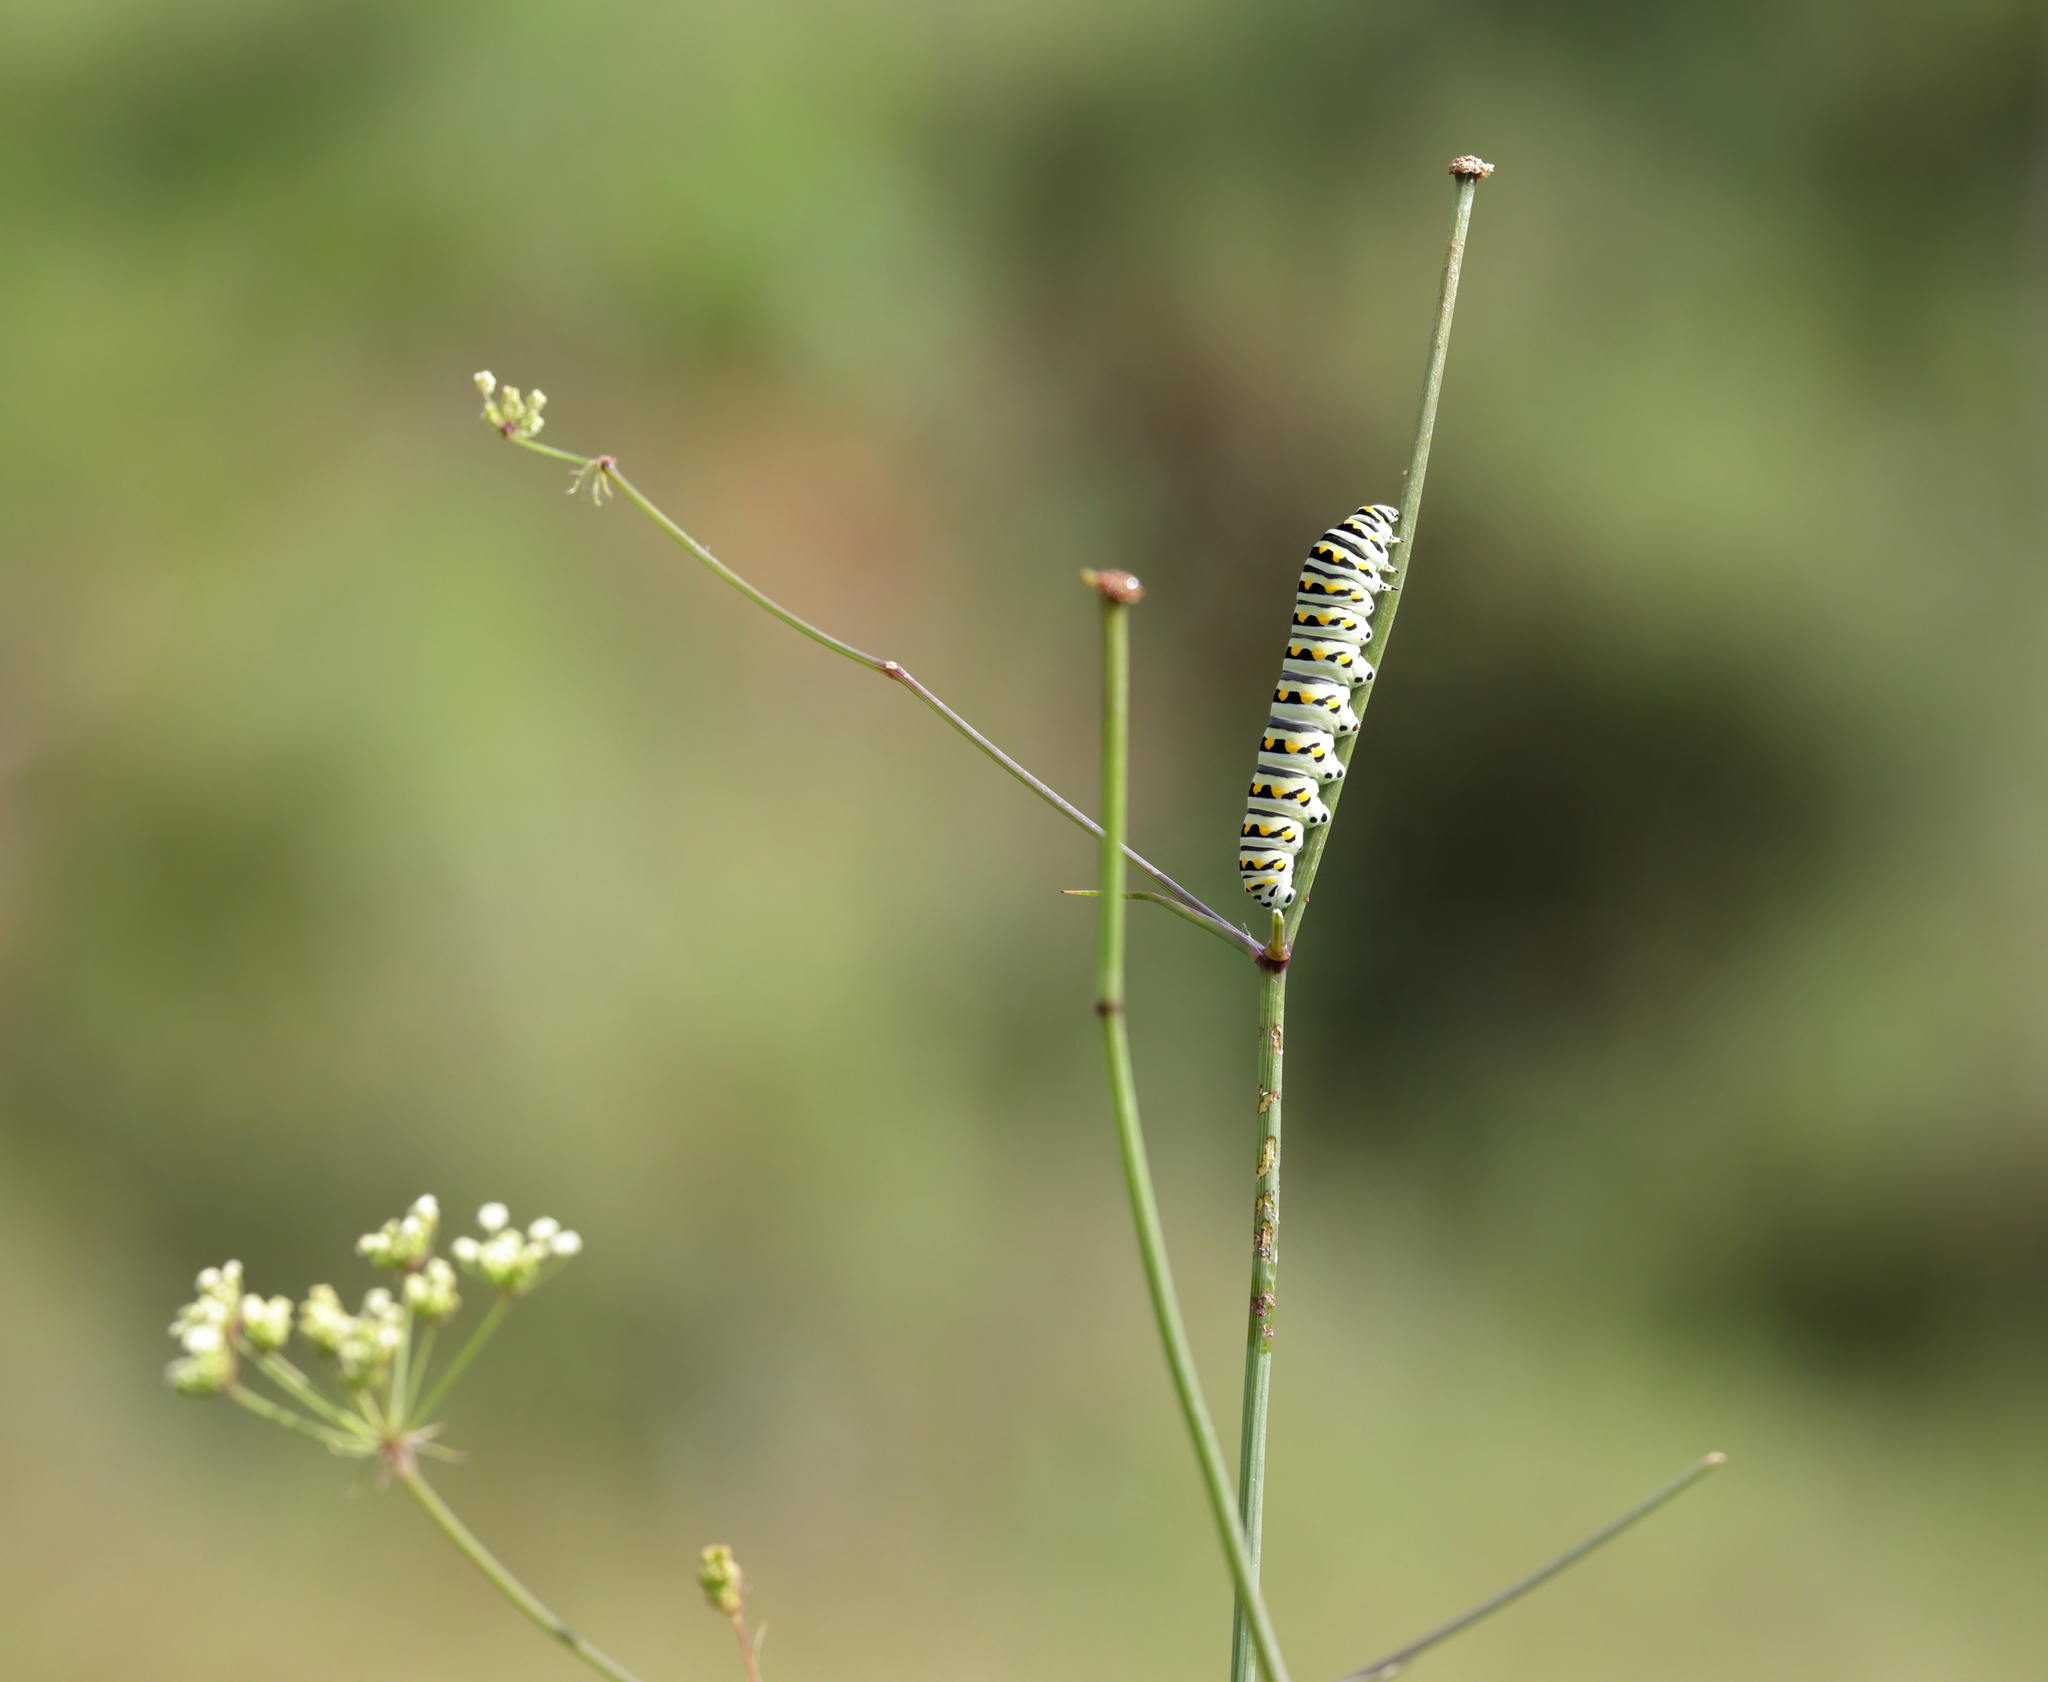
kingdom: Animalia
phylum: Arthropoda
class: Insecta
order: Lepidoptera
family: Papilionidae
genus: Papilio
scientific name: Papilio polyxenes
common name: Black swallowtail
